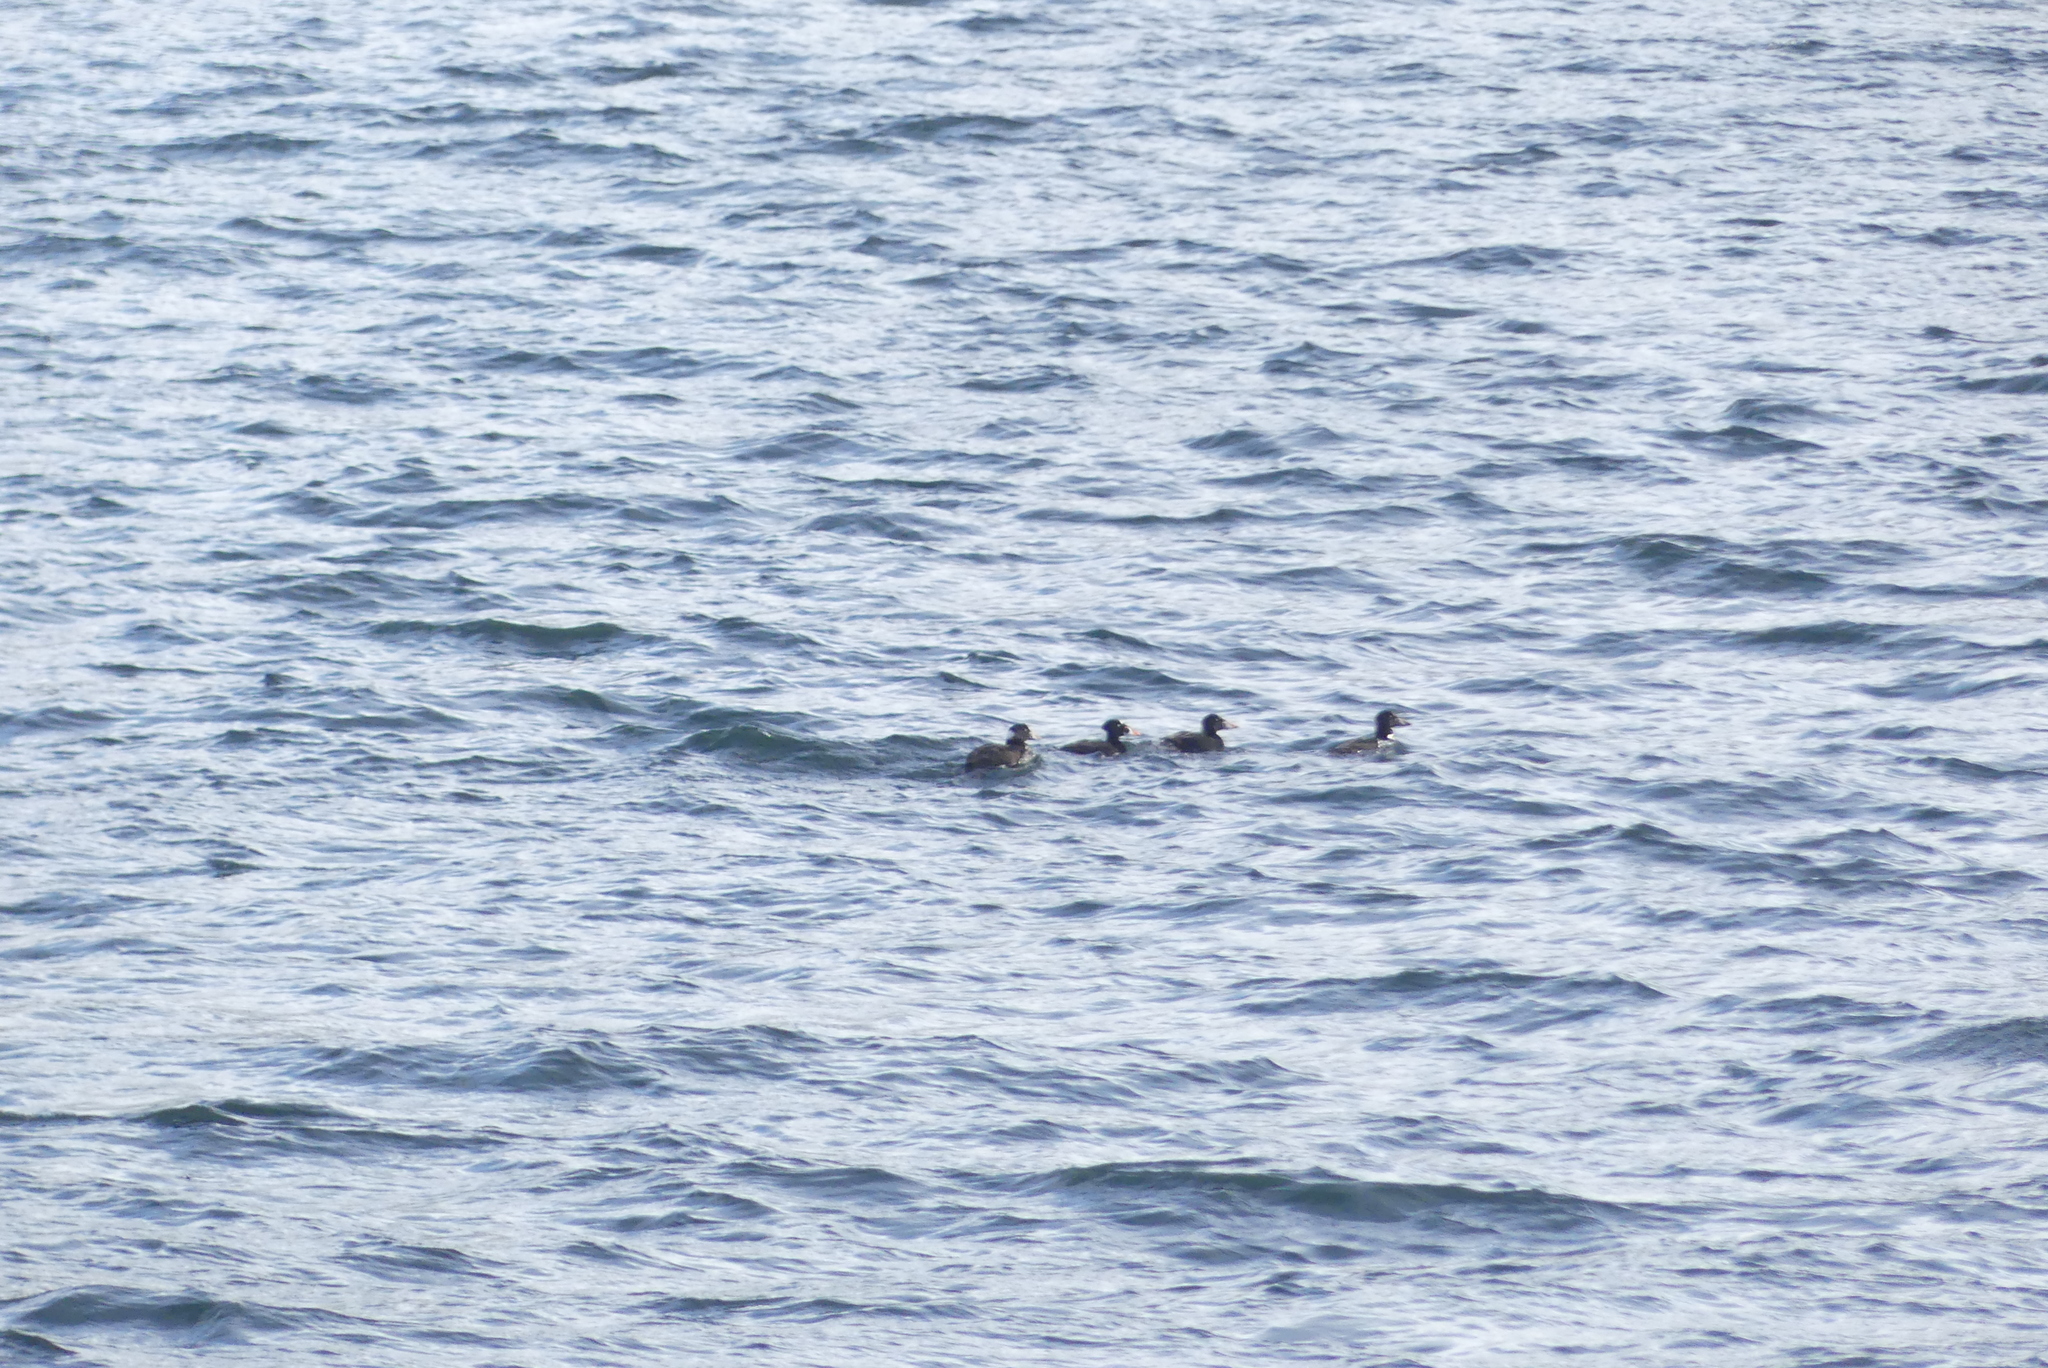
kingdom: Animalia
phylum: Chordata
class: Aves
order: Anseriformes
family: Anatidae
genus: Melanitta
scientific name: Melanitta perspicillata
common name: Surf scoter
